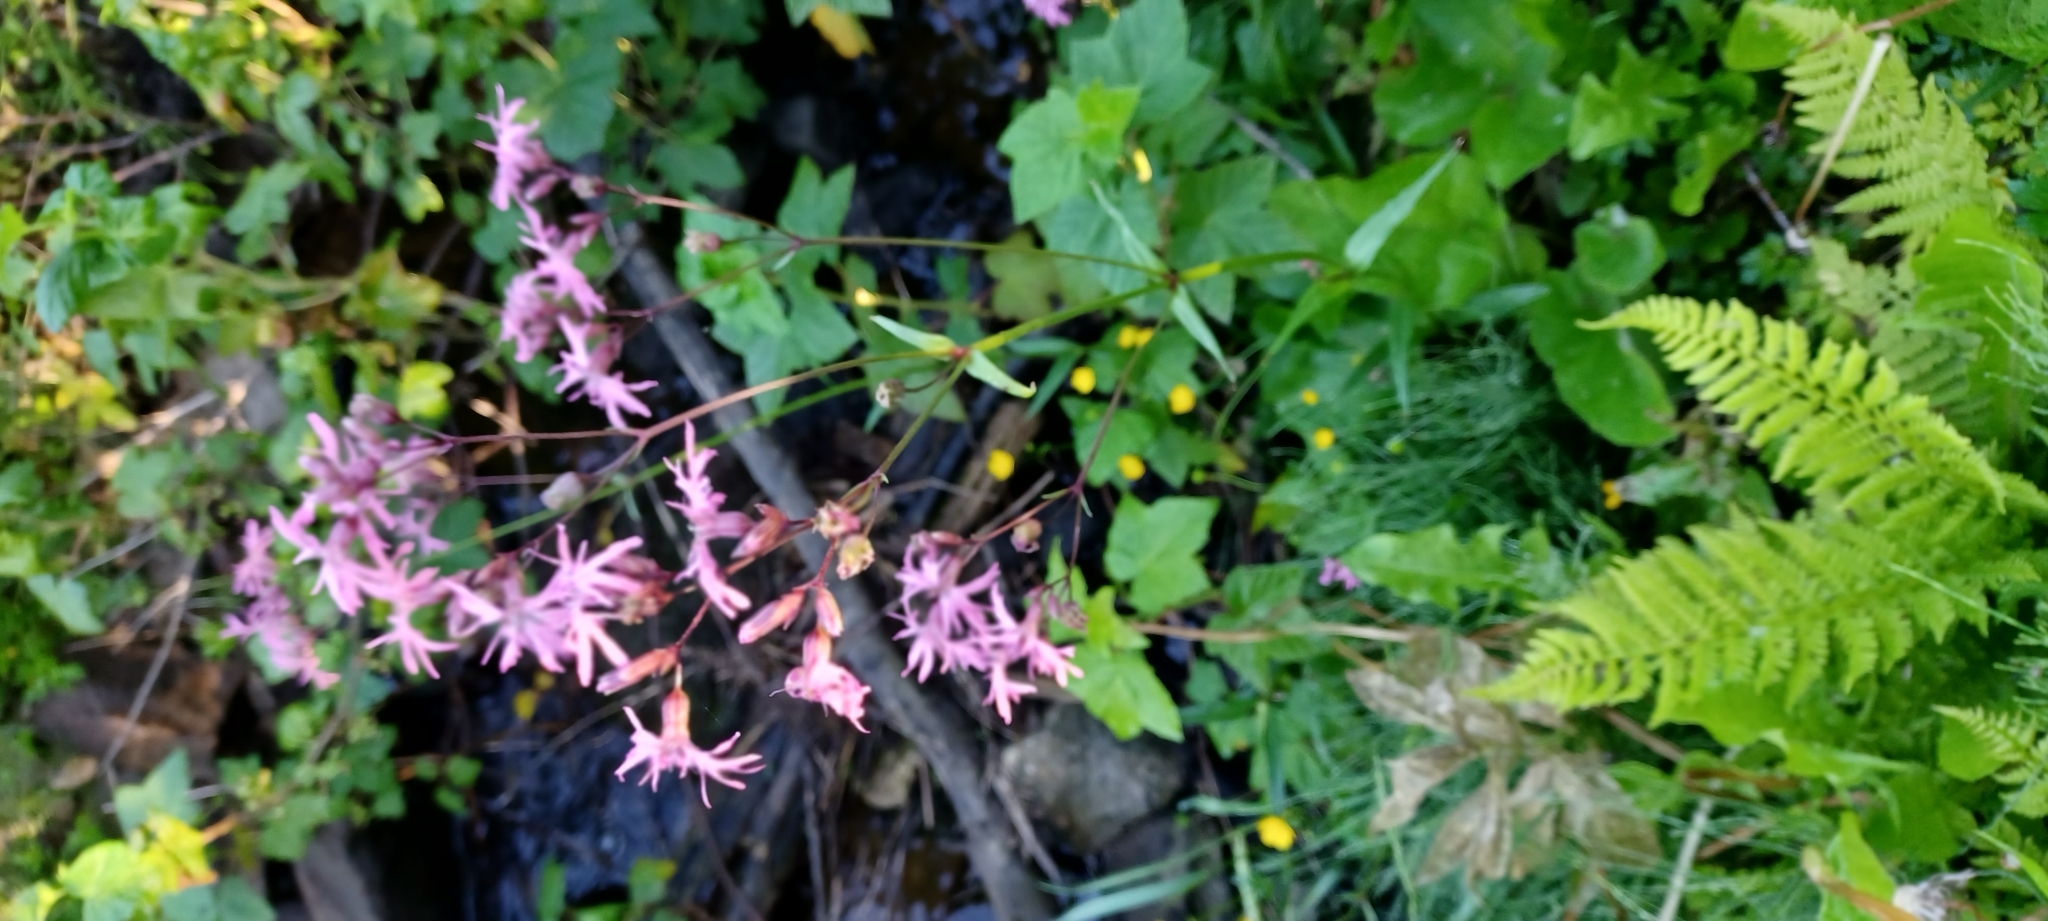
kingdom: Plantae
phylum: Tracheophyta
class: Magnoliopsida
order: Caryophyllales
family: Caryophyllaceae
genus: Silene
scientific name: Silene flos-cuculi
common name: Ragged-robin
